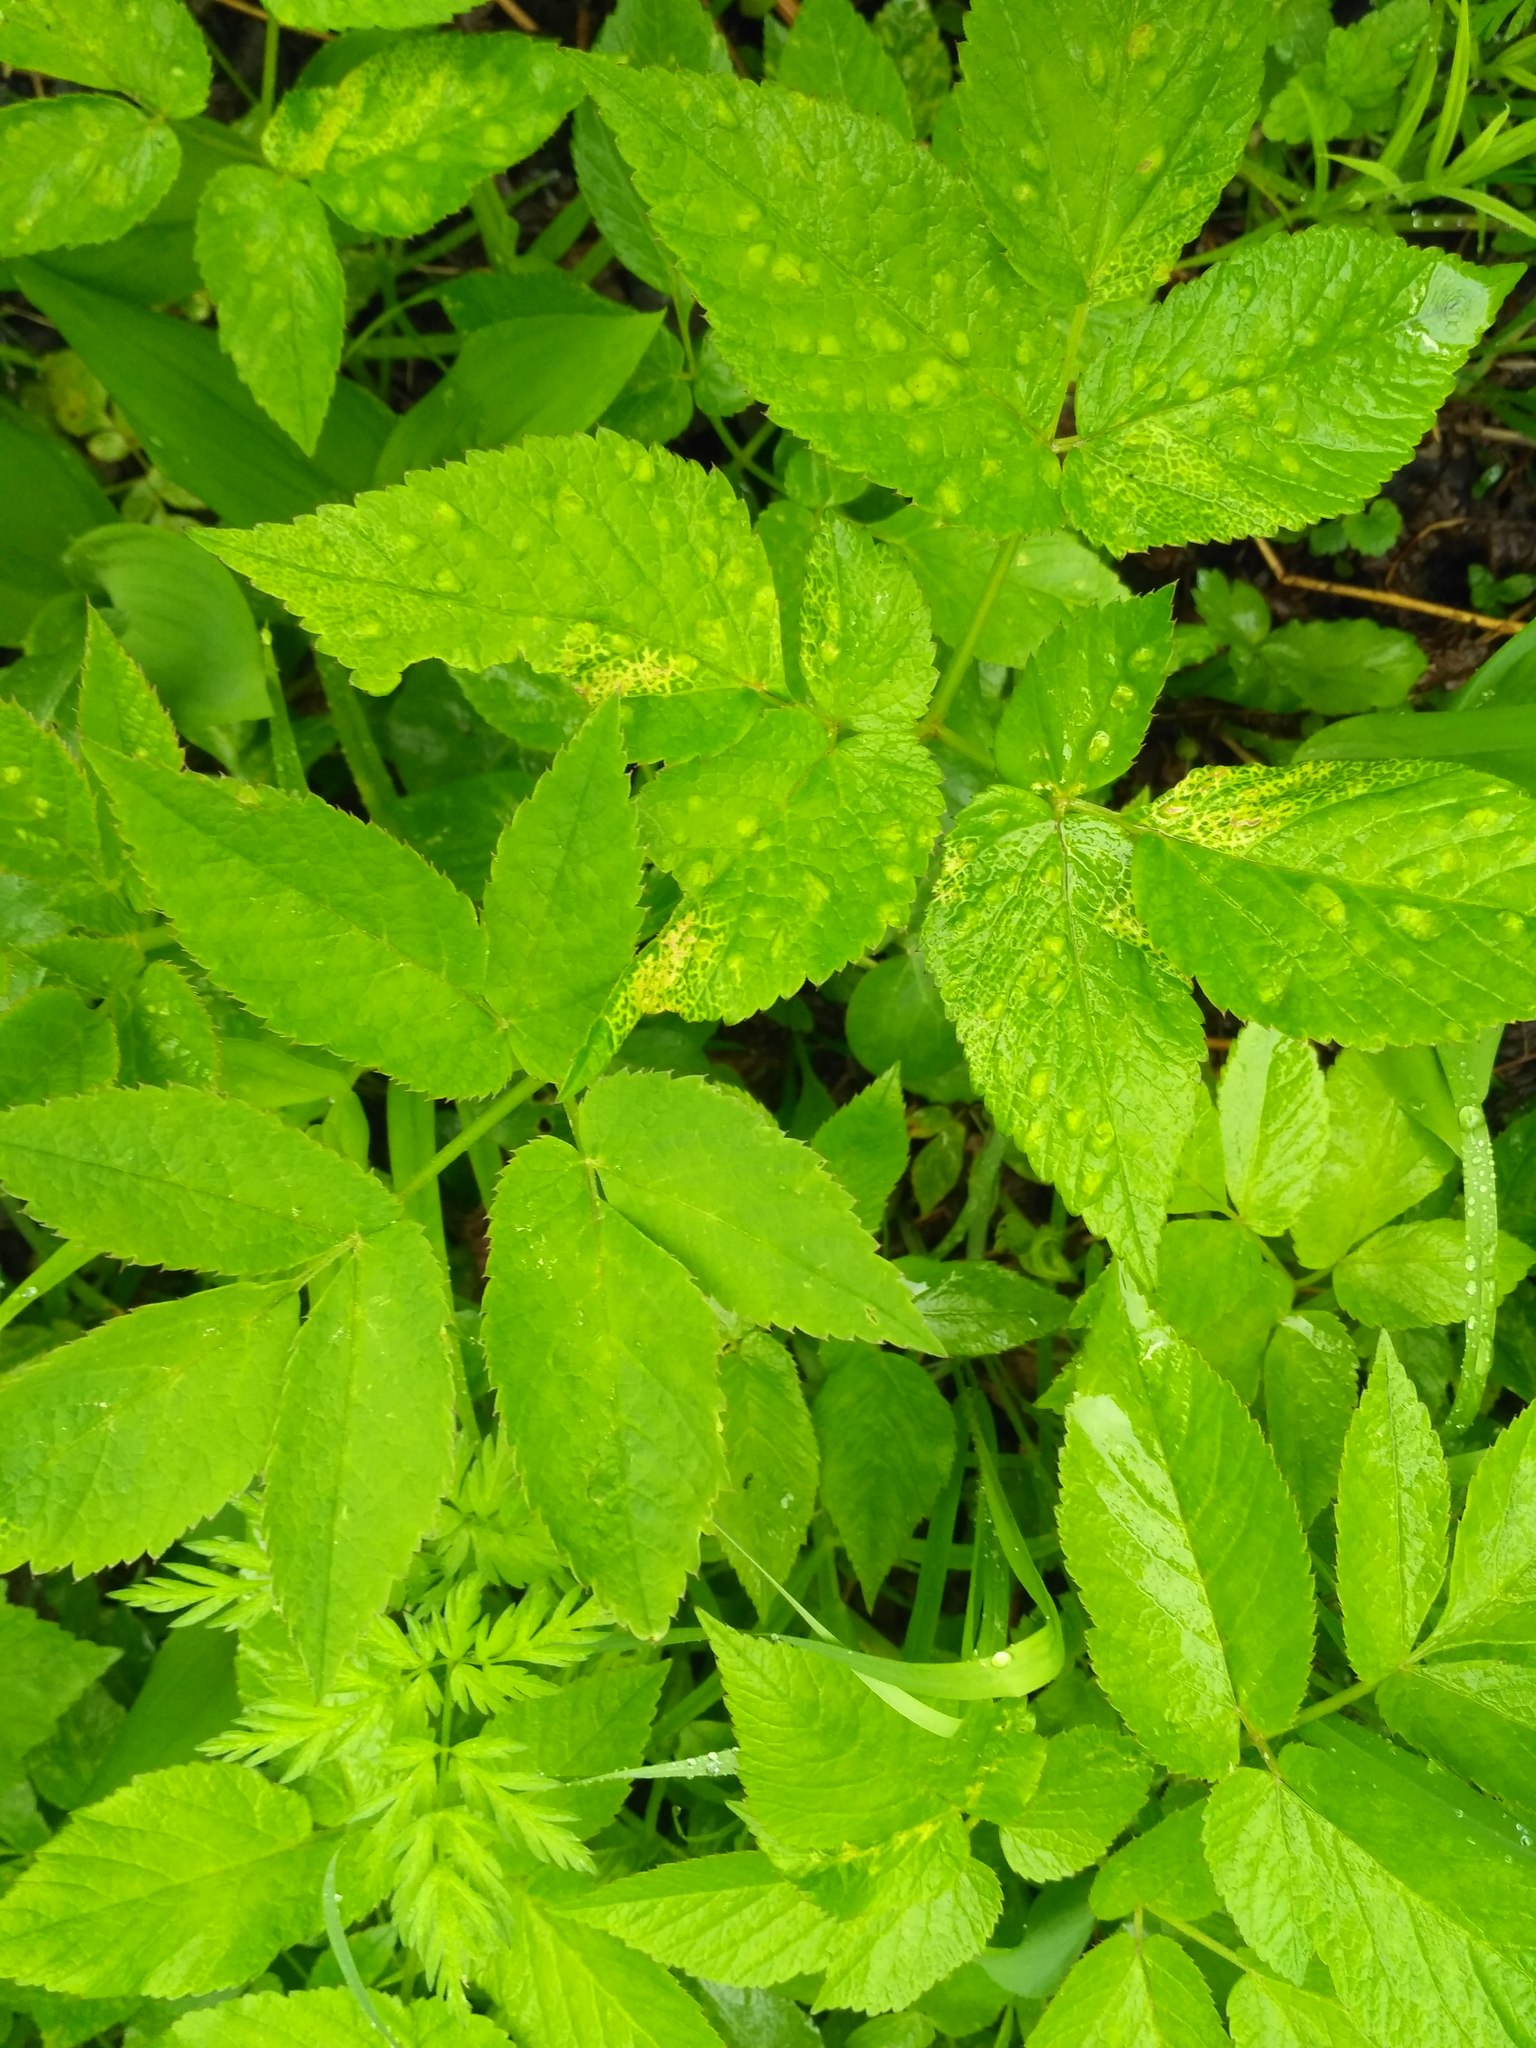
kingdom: Plantae
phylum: Tracheophyta
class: Magnoliopsida
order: Apiales
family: Apiaceae
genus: Aegopodium
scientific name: Aegopodium podagraria
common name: Ground-elder
